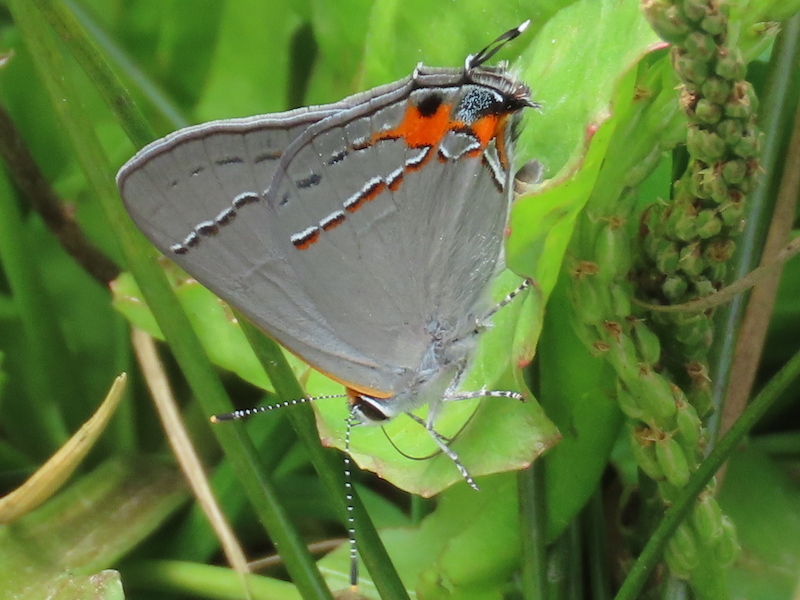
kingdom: Animalia
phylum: Arthropoda
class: Insecta
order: Lepidoptera
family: Lycaenidae
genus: Strymon
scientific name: Strymon melinus
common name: Gray hairstreak
